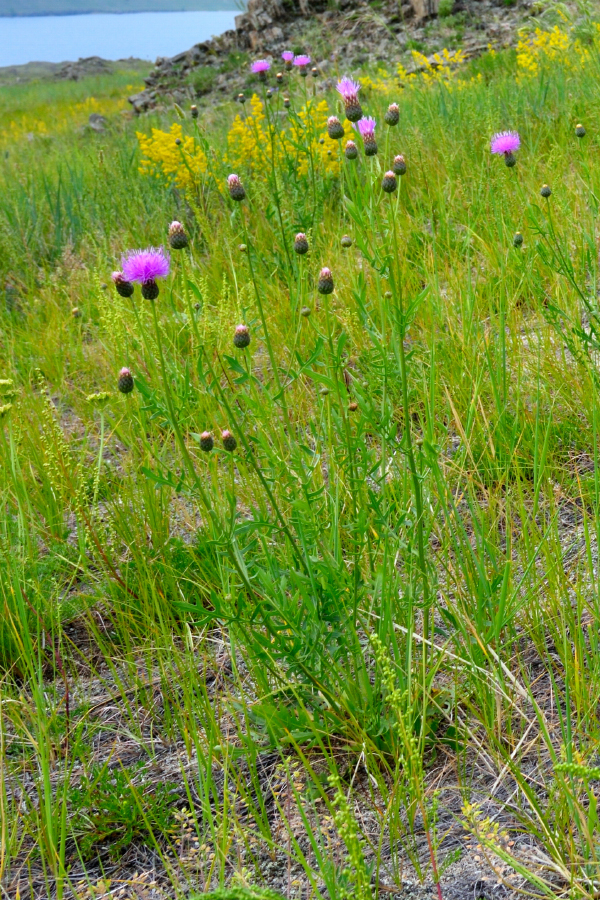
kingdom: Plantae
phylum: Tracheophyta
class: Magnoliopsida
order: Asterales
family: Asteraceae
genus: Klasea
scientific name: Klasea centauroides
